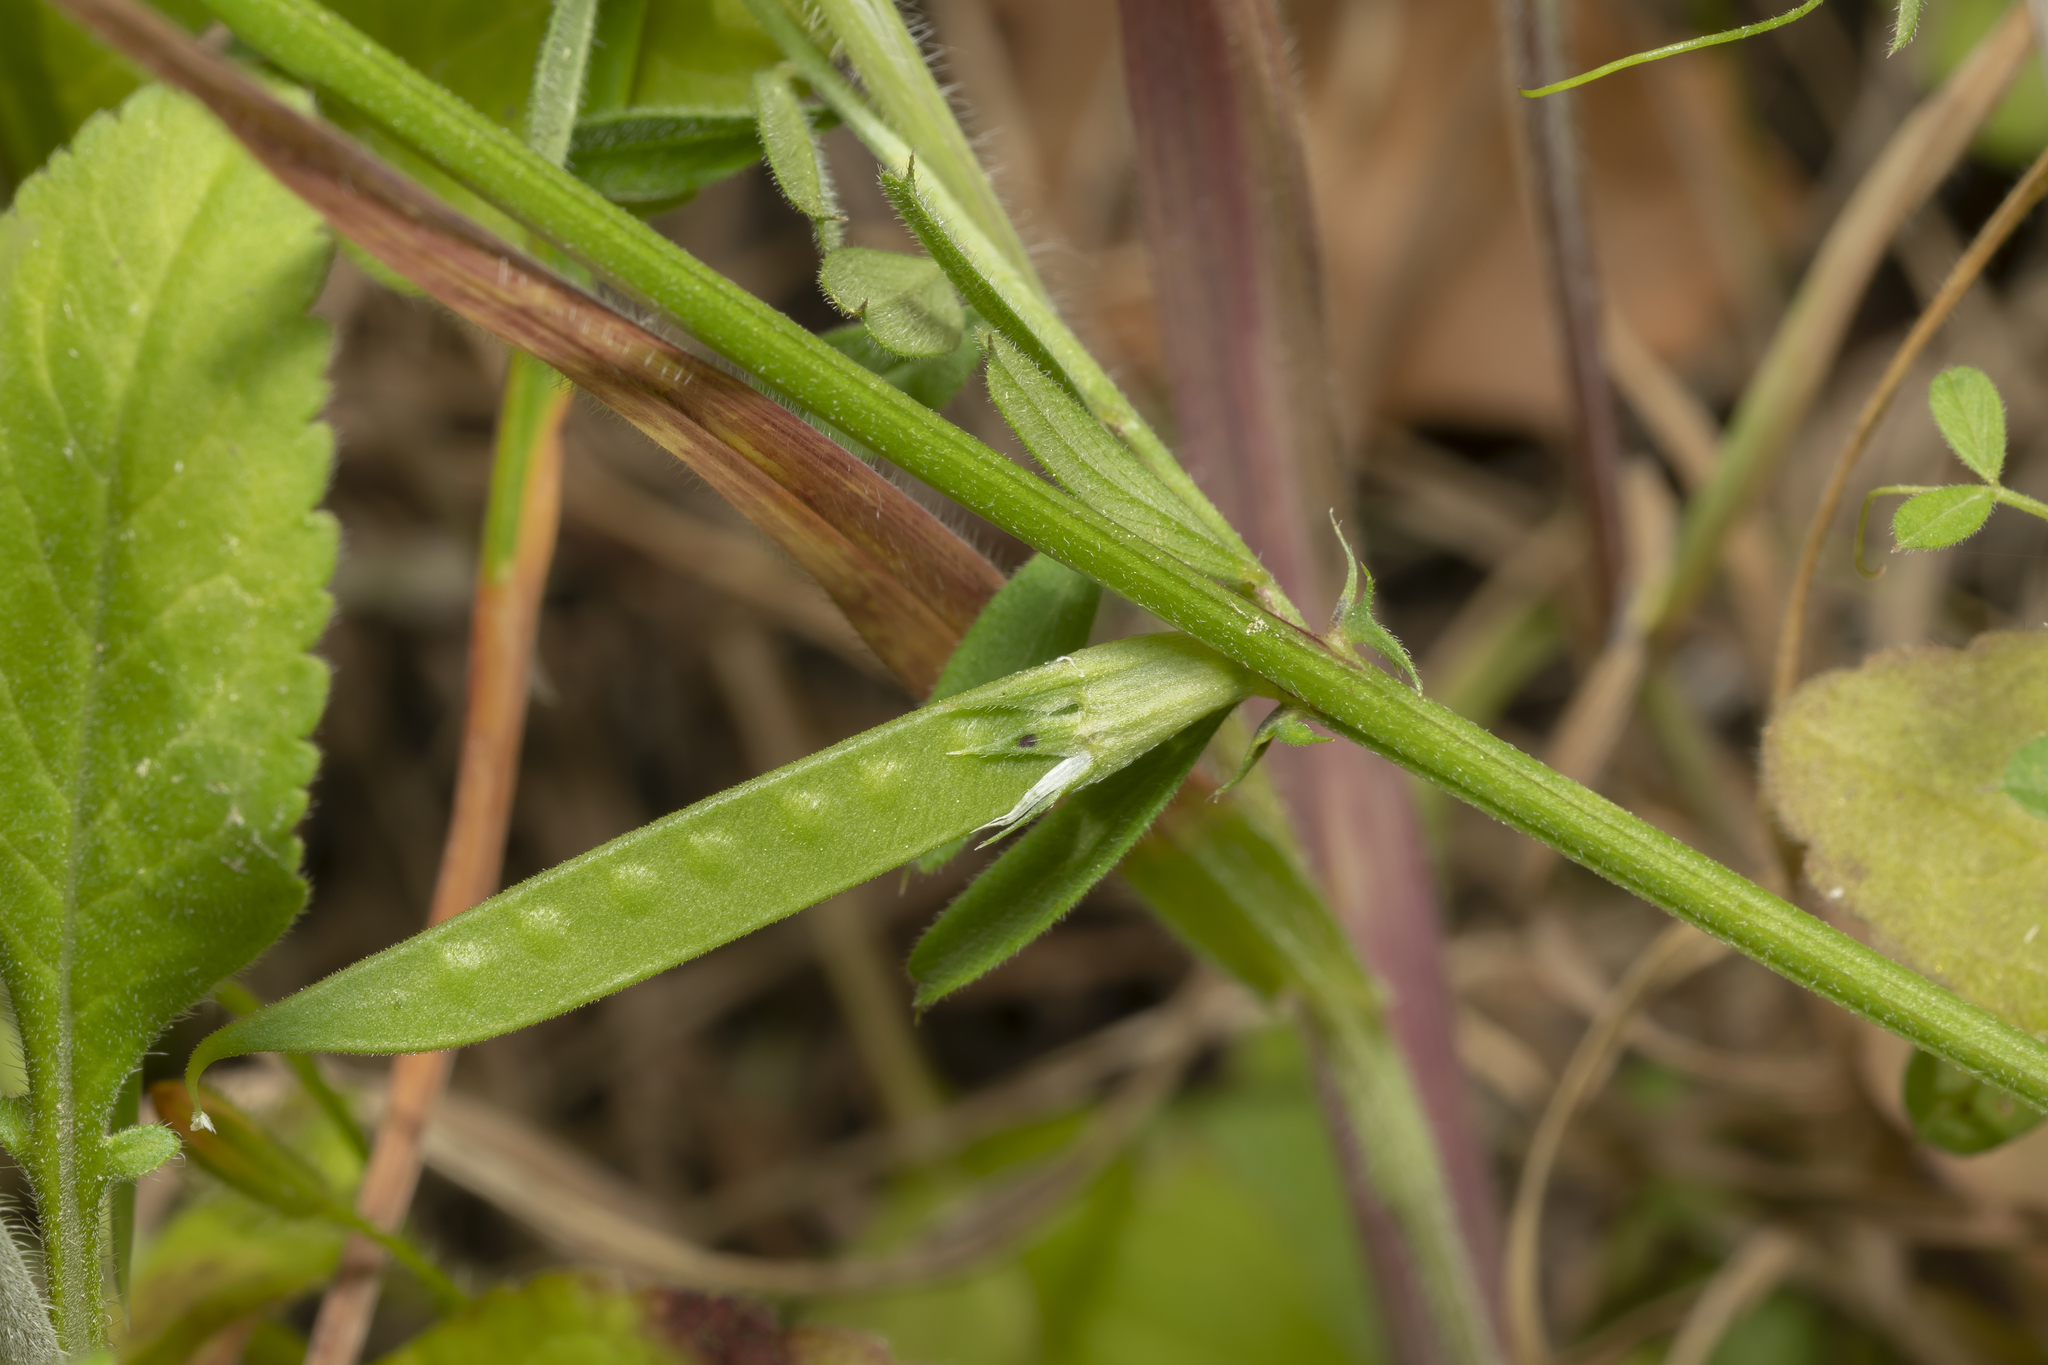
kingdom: Plantae
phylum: Tracheophyta
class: Magnoliopsida
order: Fabales
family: Fabaceae
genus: Vicia
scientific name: Vicia sativa
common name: Garden vetch
